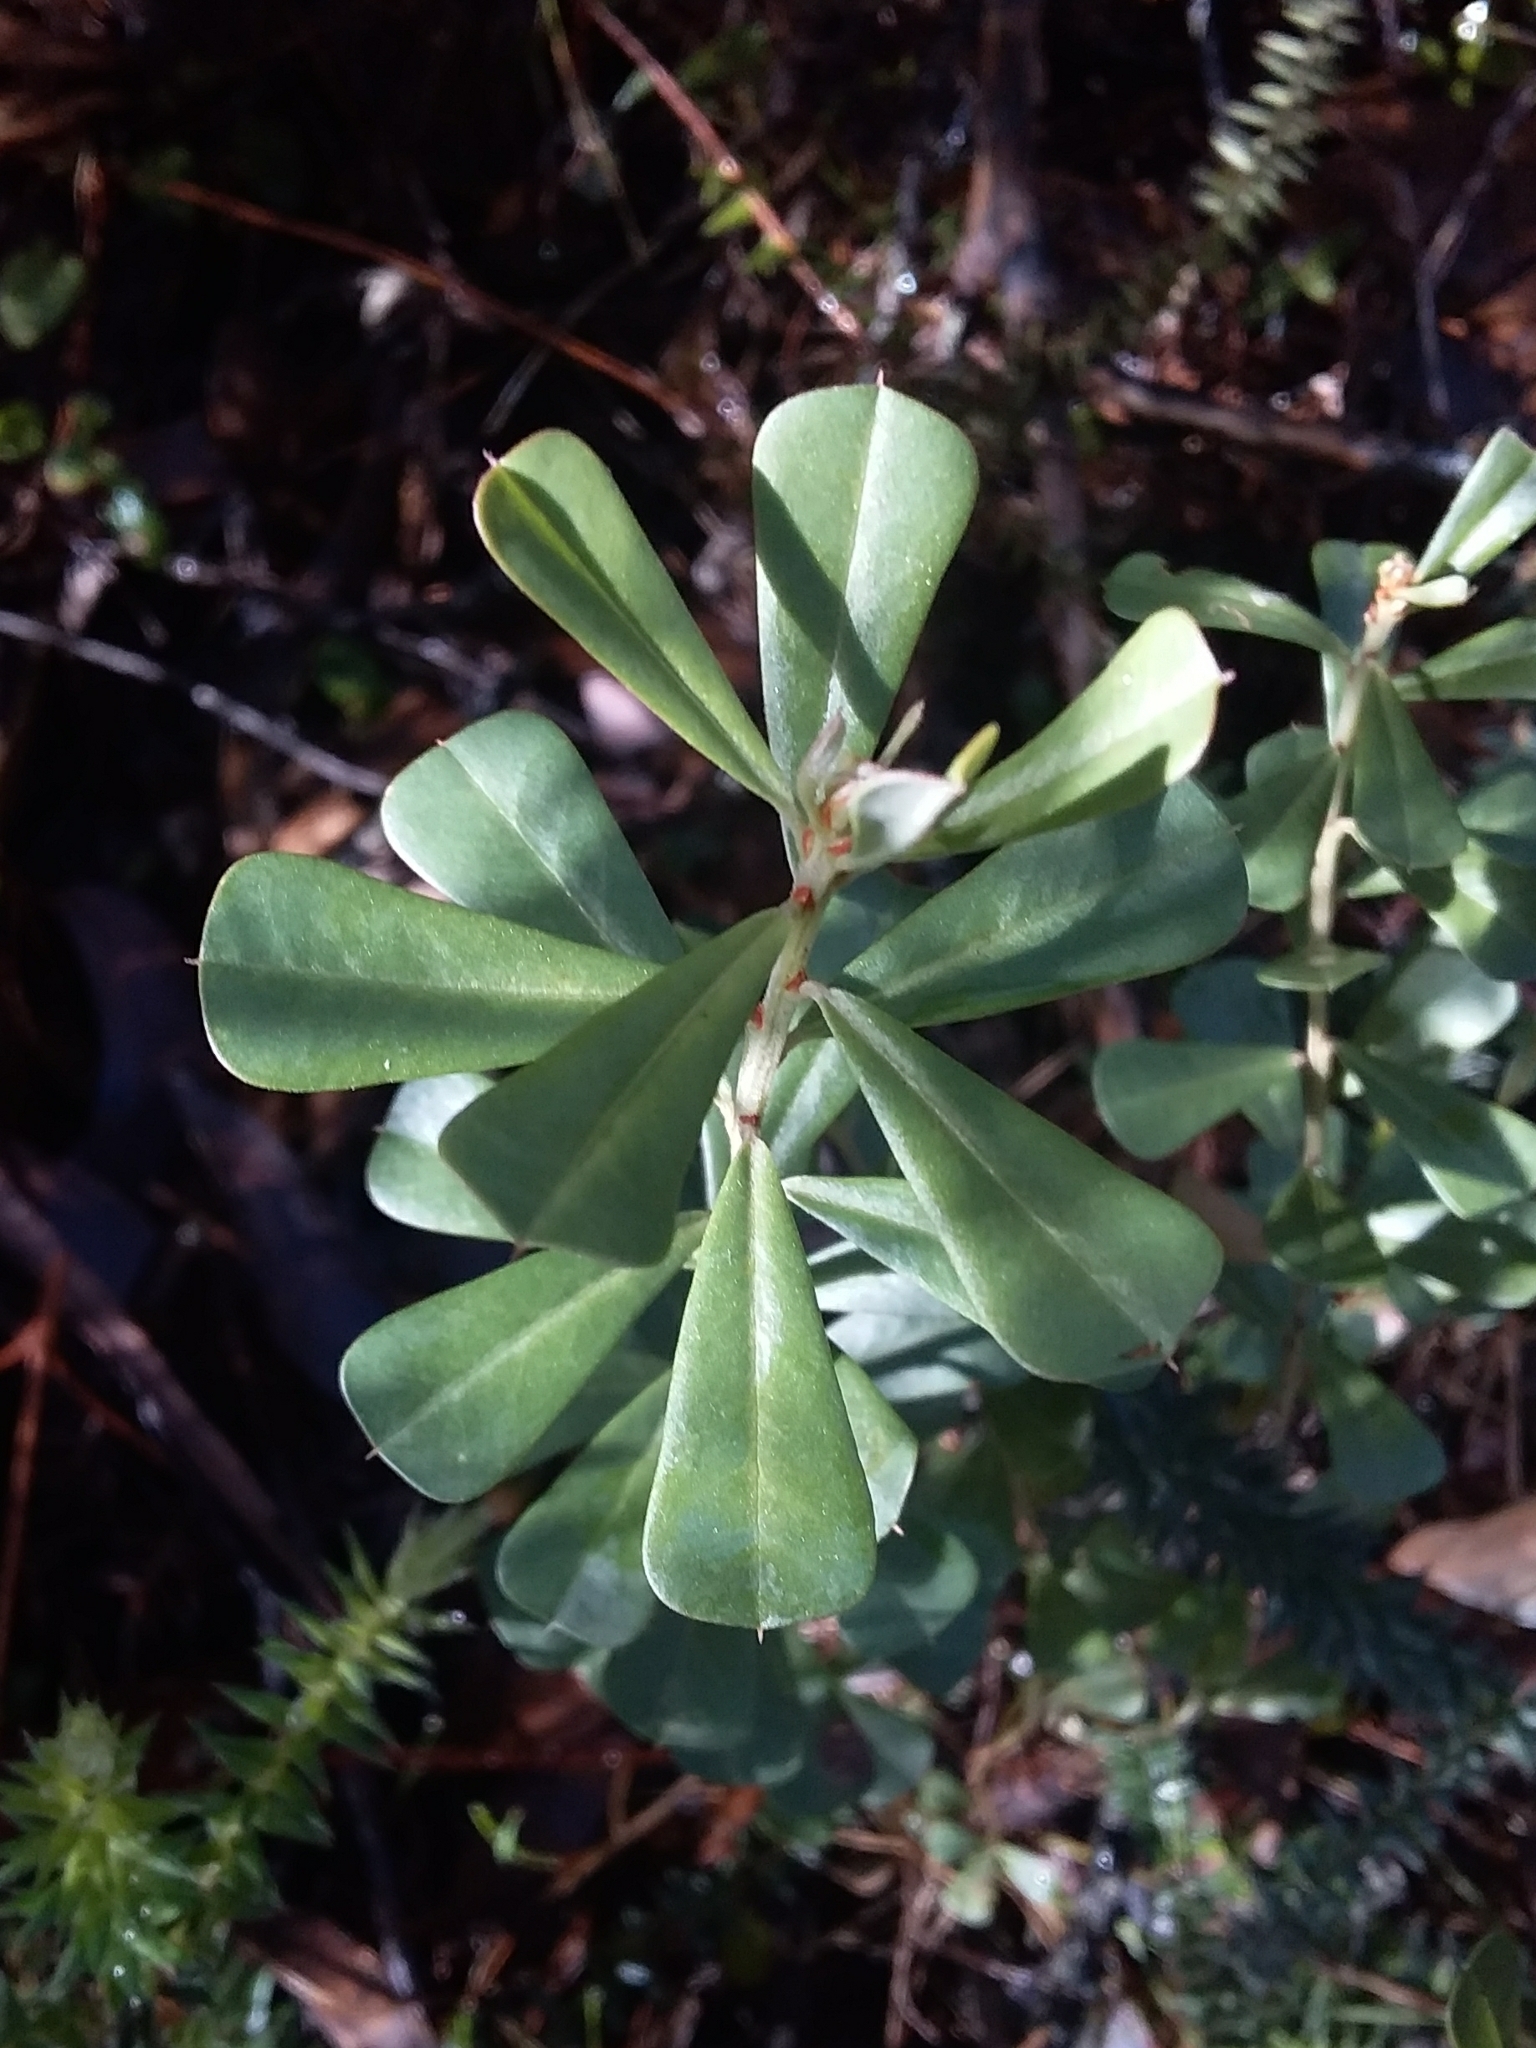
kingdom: Plantae
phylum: Tracheophyta
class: Magnoliopsida
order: Fabales
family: Fabaceae
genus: Pultenaea
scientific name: Pultenaea daphnoides
